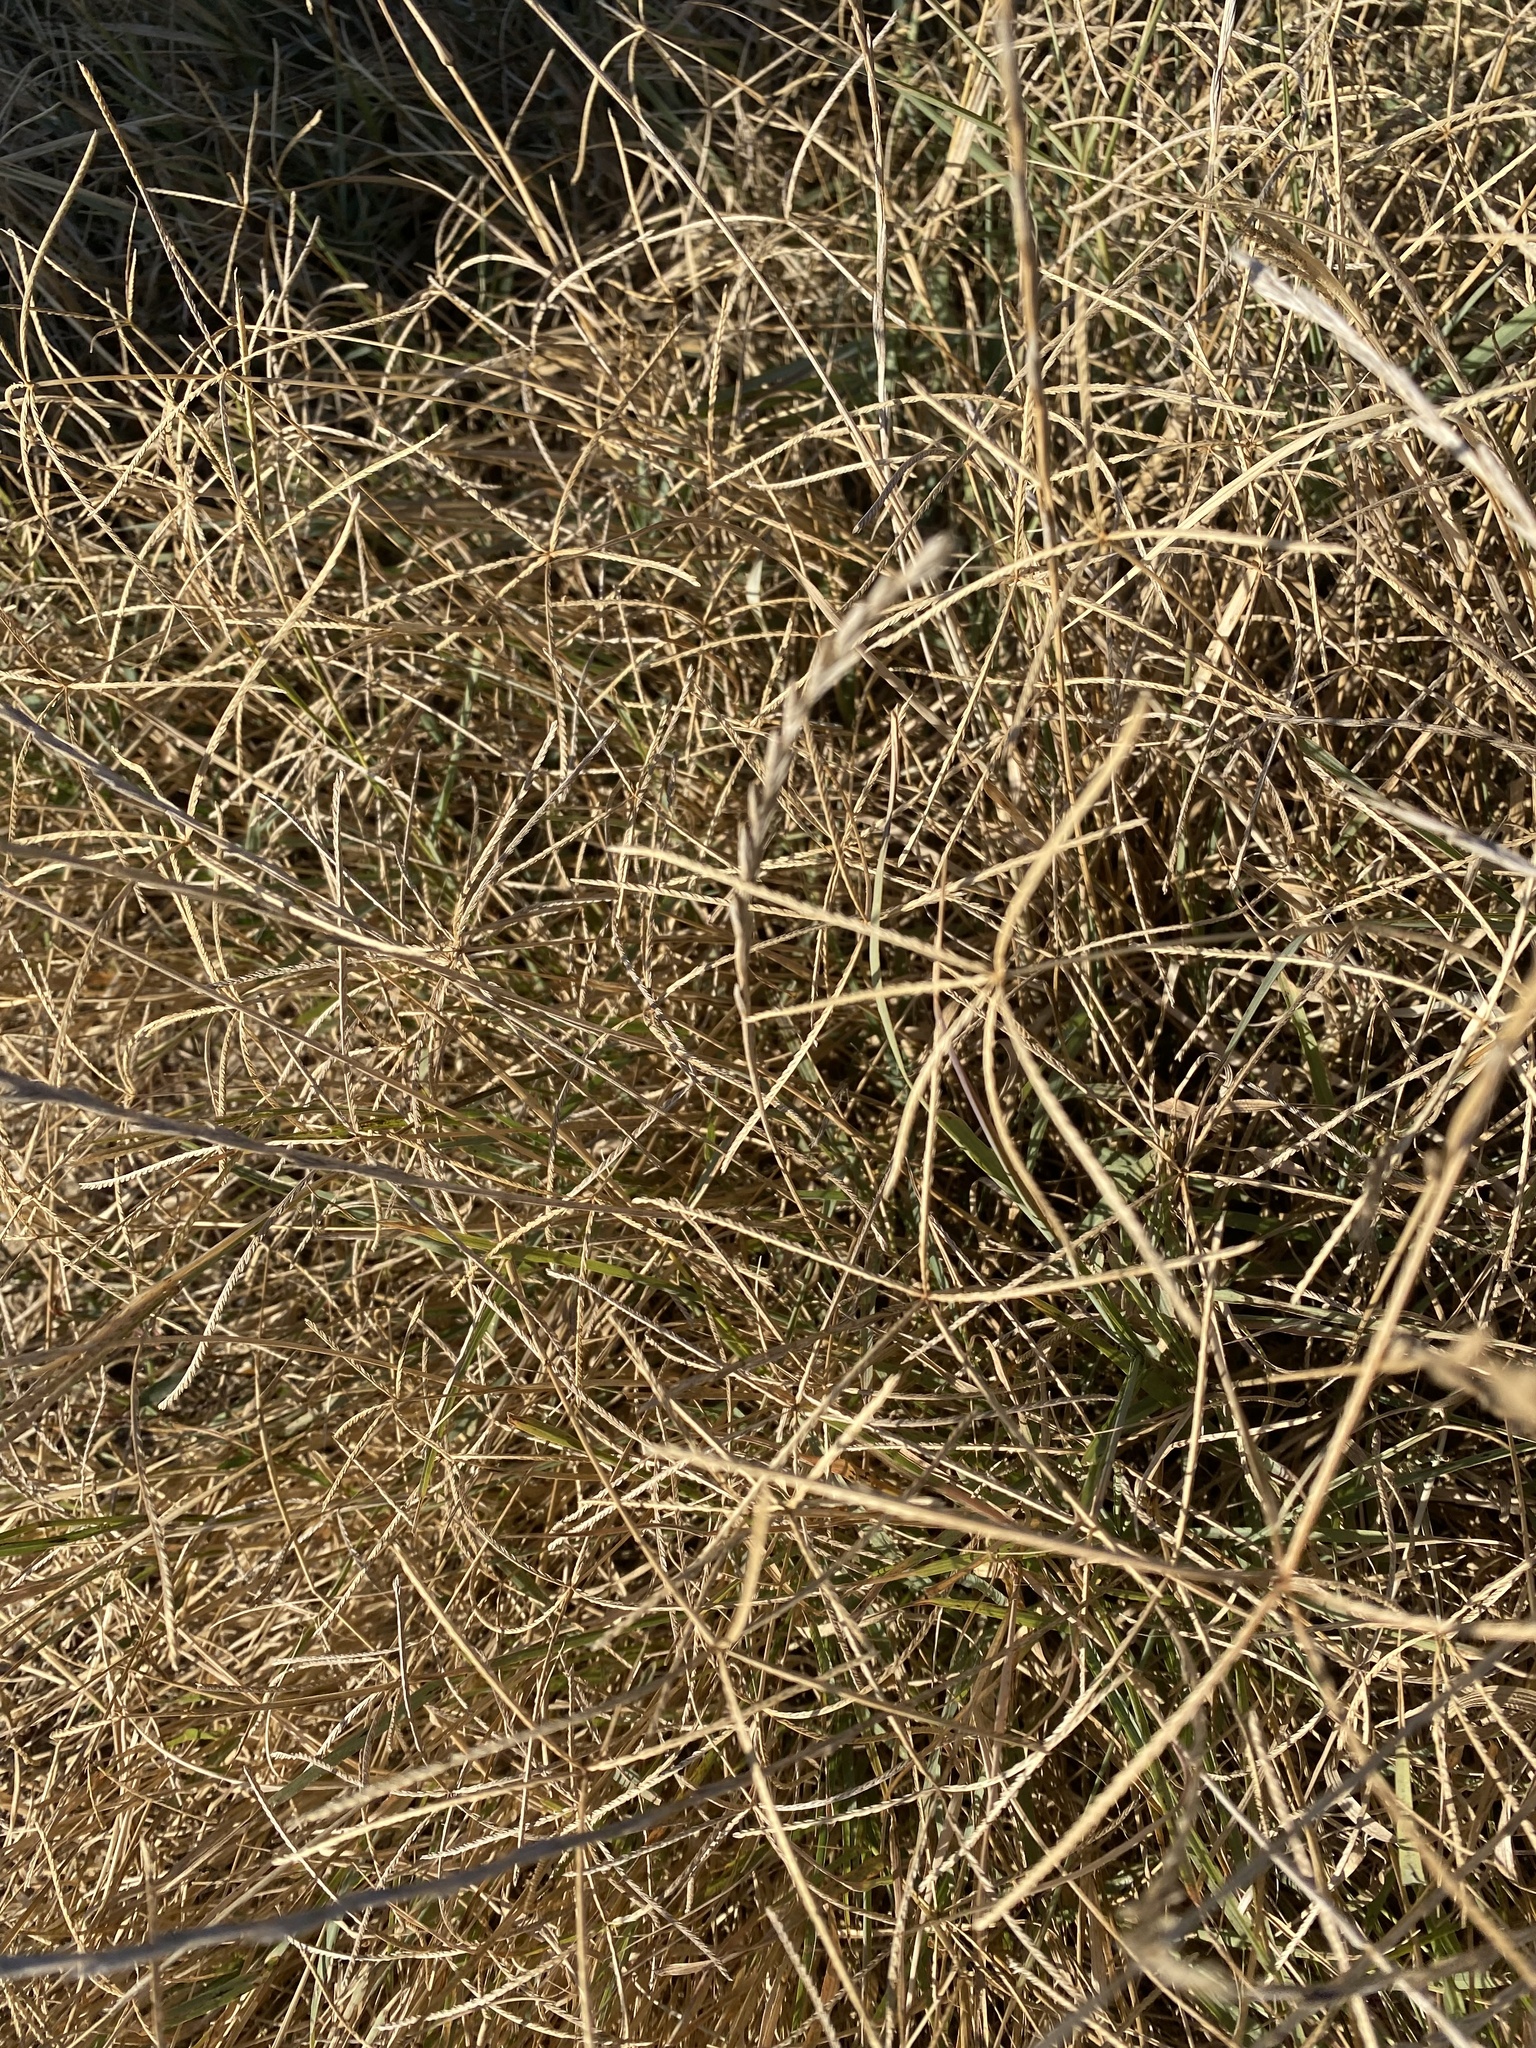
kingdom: Plantae
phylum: Tracheophyta
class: Liliopsida
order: Poales
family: Poaceae
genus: Cynodon
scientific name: Cynodon dactylon
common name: Bermuda grass
